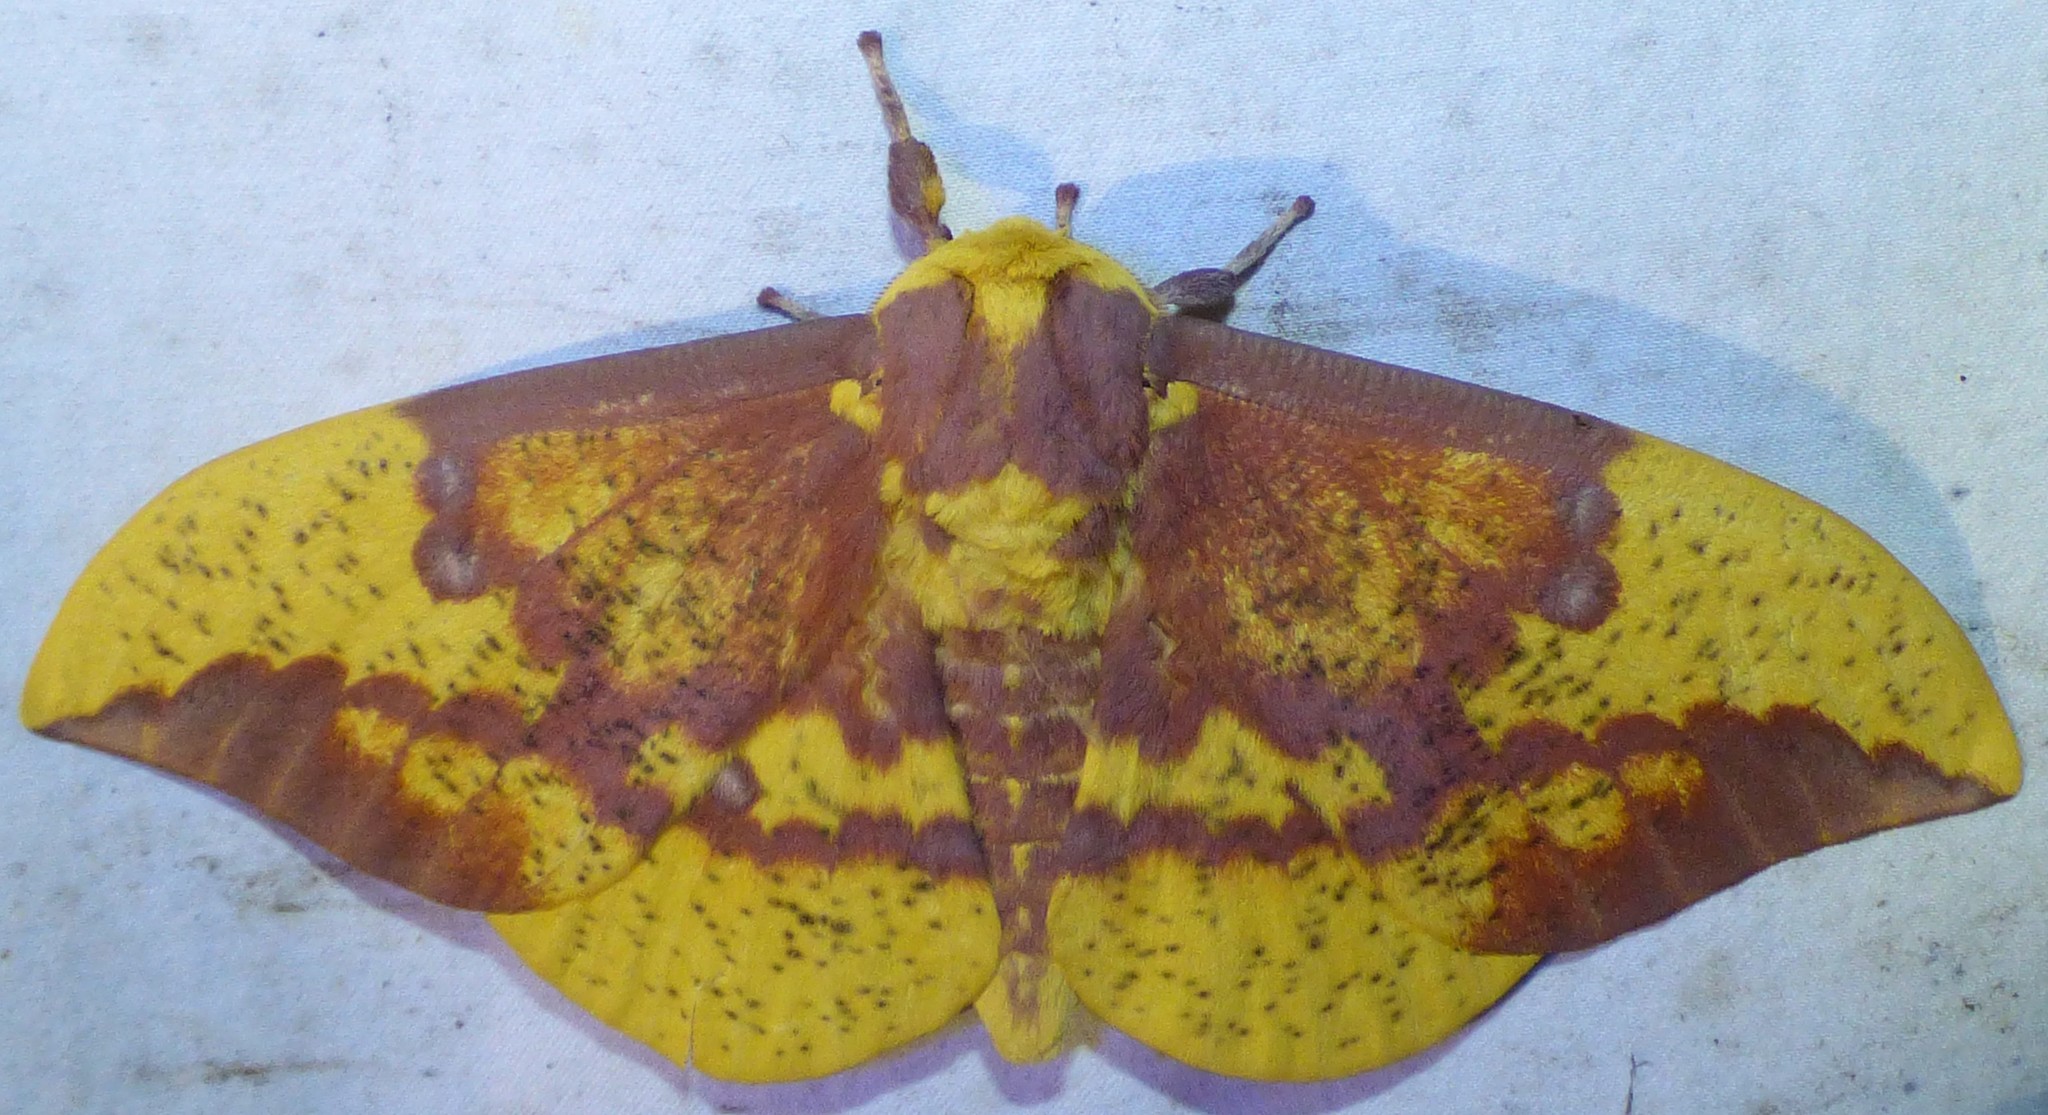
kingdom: Animalia
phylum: Arthropoda
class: Insecta
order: Lepidoptera
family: Saturniidae
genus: Eacles
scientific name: Eacles imperialis
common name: Imperial moth
